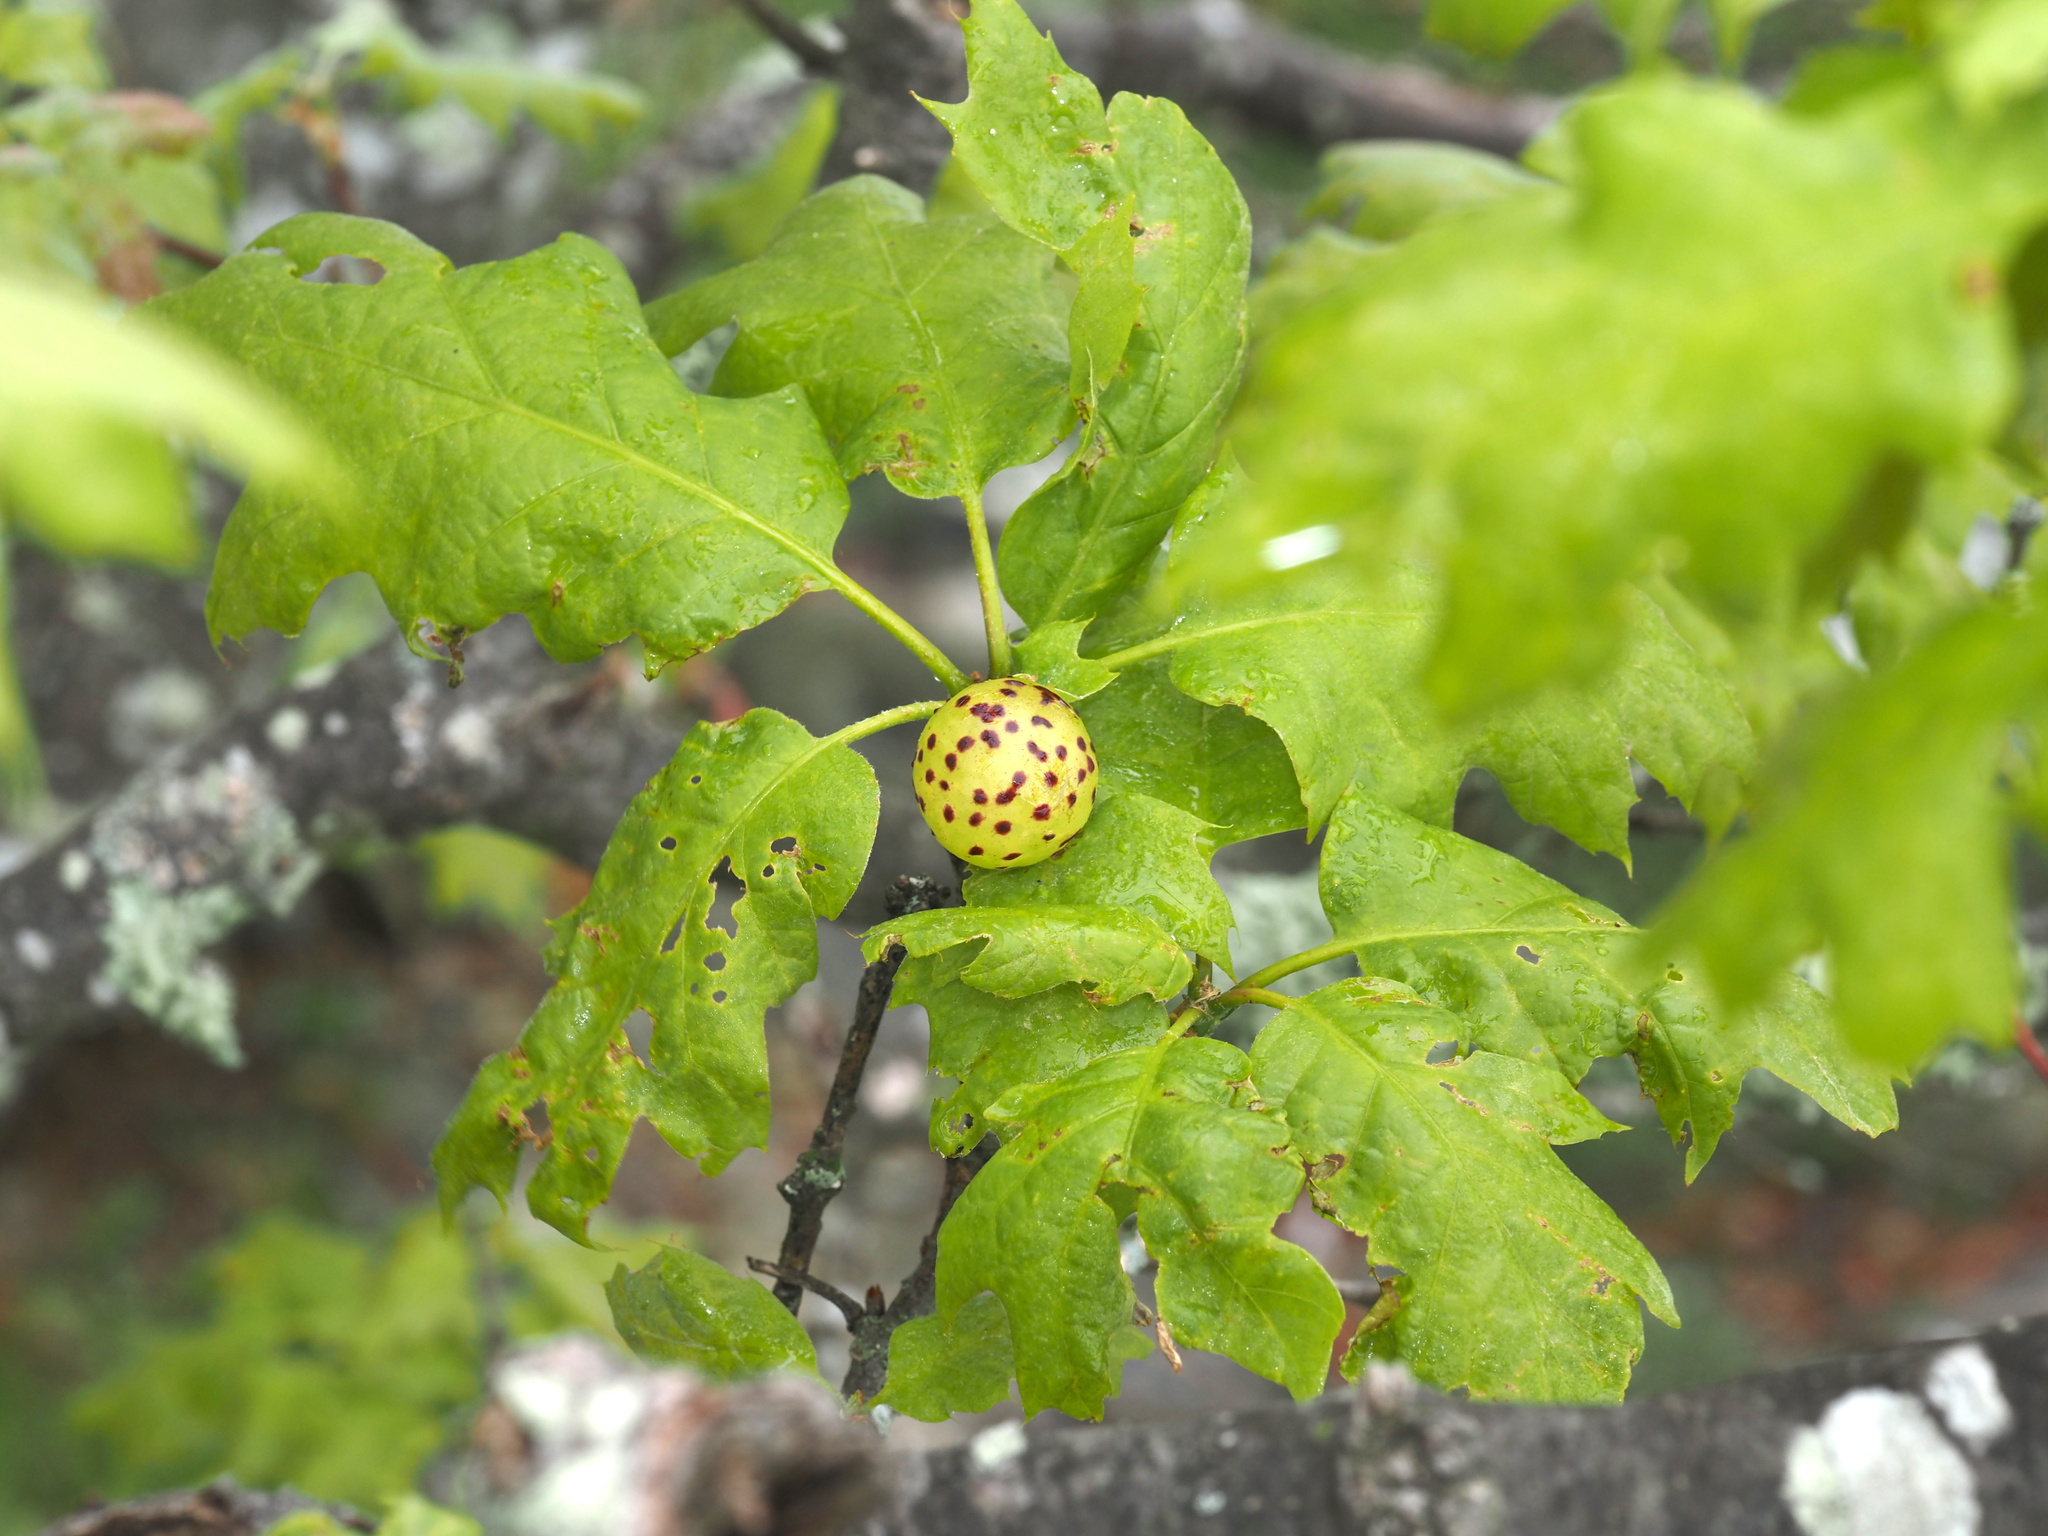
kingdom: Animalia
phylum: Arthropoda
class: Insecta
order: Hymenoptera
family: Cynipidae
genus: Amphibolips
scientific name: Amphibolips
